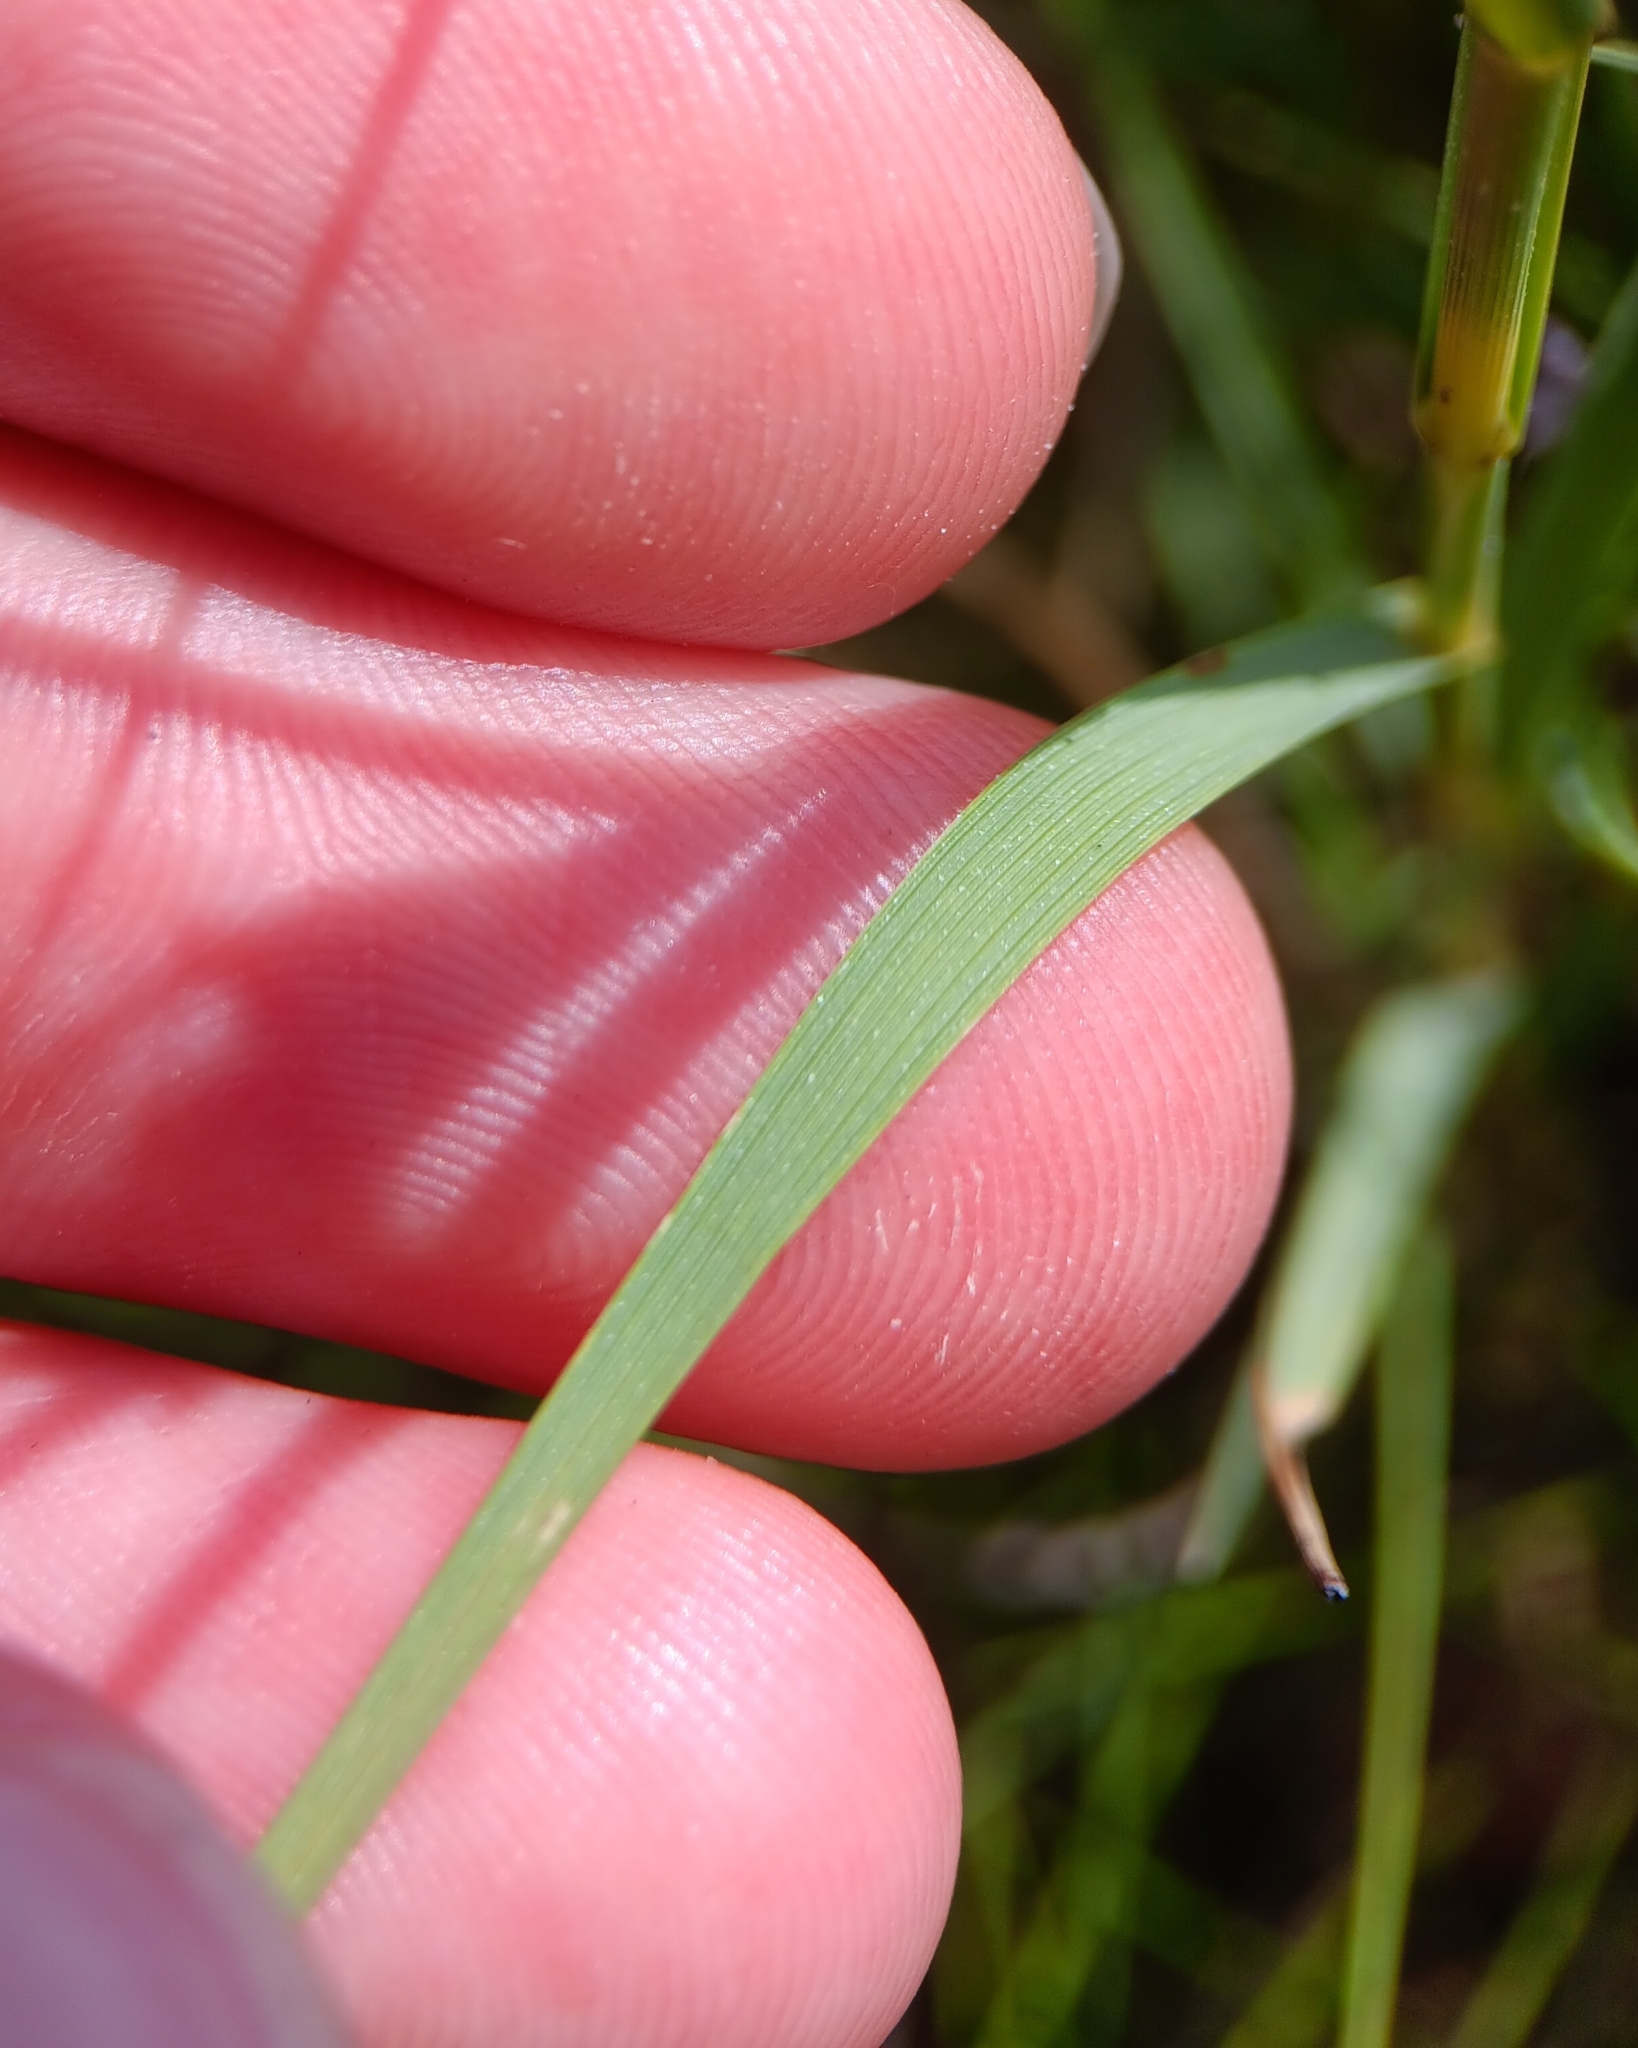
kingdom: Plantae
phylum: Tracheophyta
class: Liliopsida
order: Poales
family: Poaceae
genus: Distichlis
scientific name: Distichlis spicata
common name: Saltgrass
